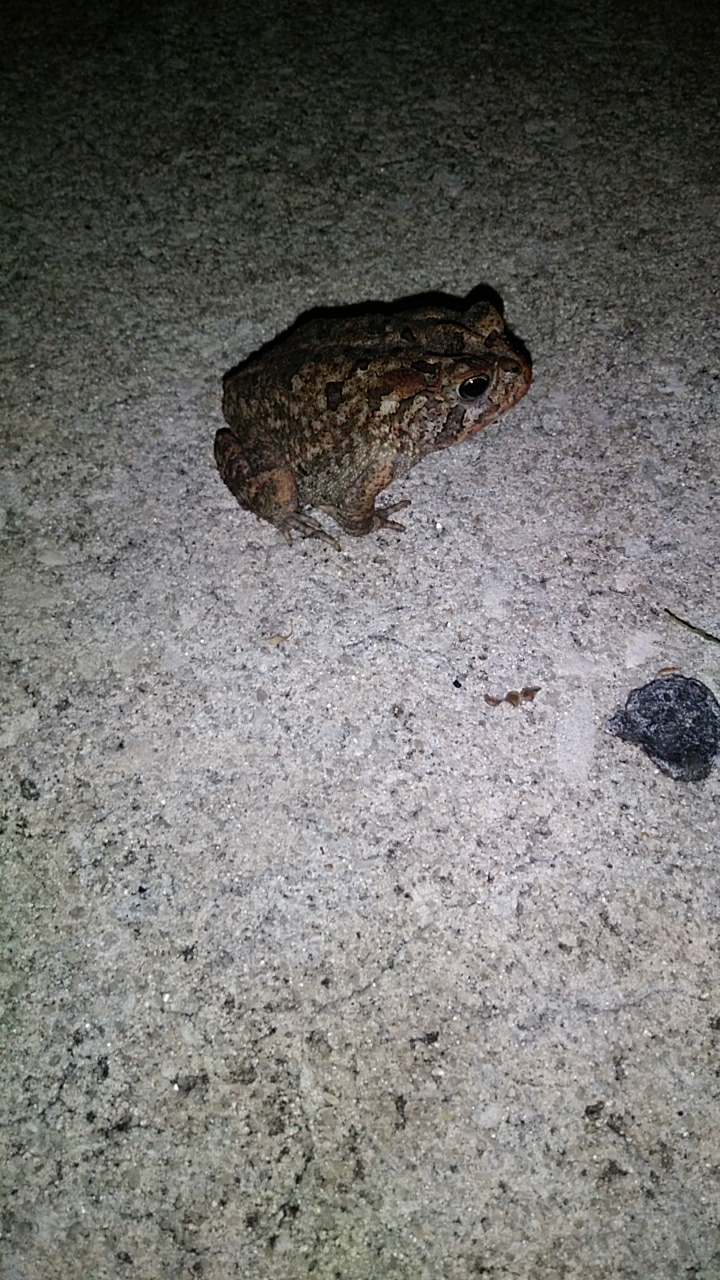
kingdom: Animalia
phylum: Chordata
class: Amphibia
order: Anura
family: Bufonidae
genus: Anaxyrus
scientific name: Anaxyrus terrestris
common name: Southern toad
